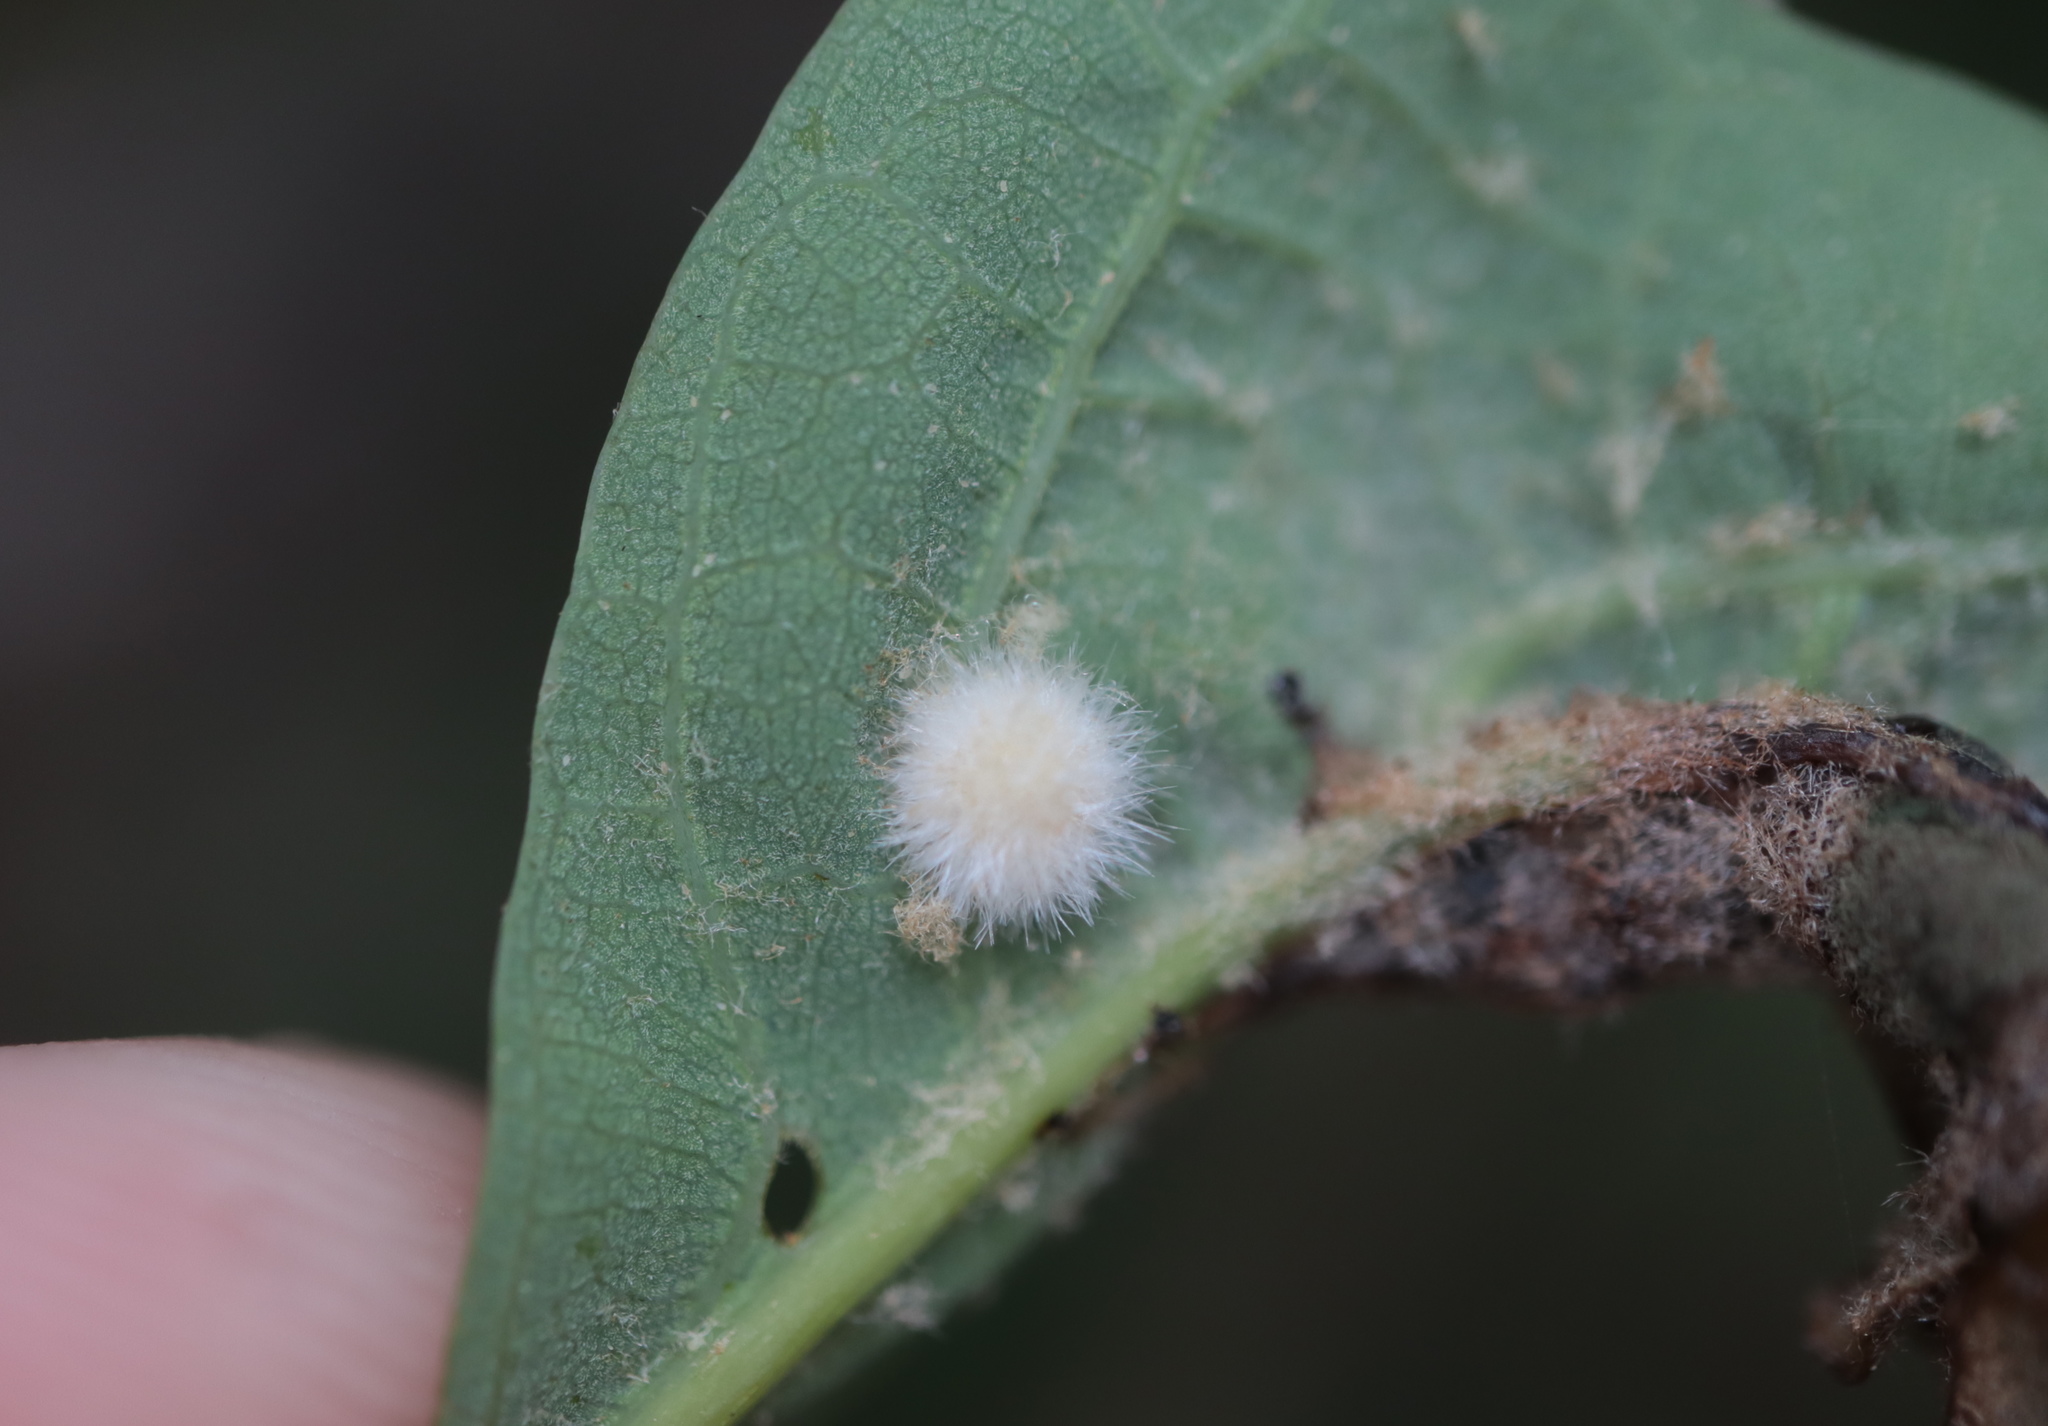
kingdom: Animalia
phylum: Arthropoda
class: Insecta
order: Hymenoptera
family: Cynipidae
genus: Philonix
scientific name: Philonix fulvicollis
